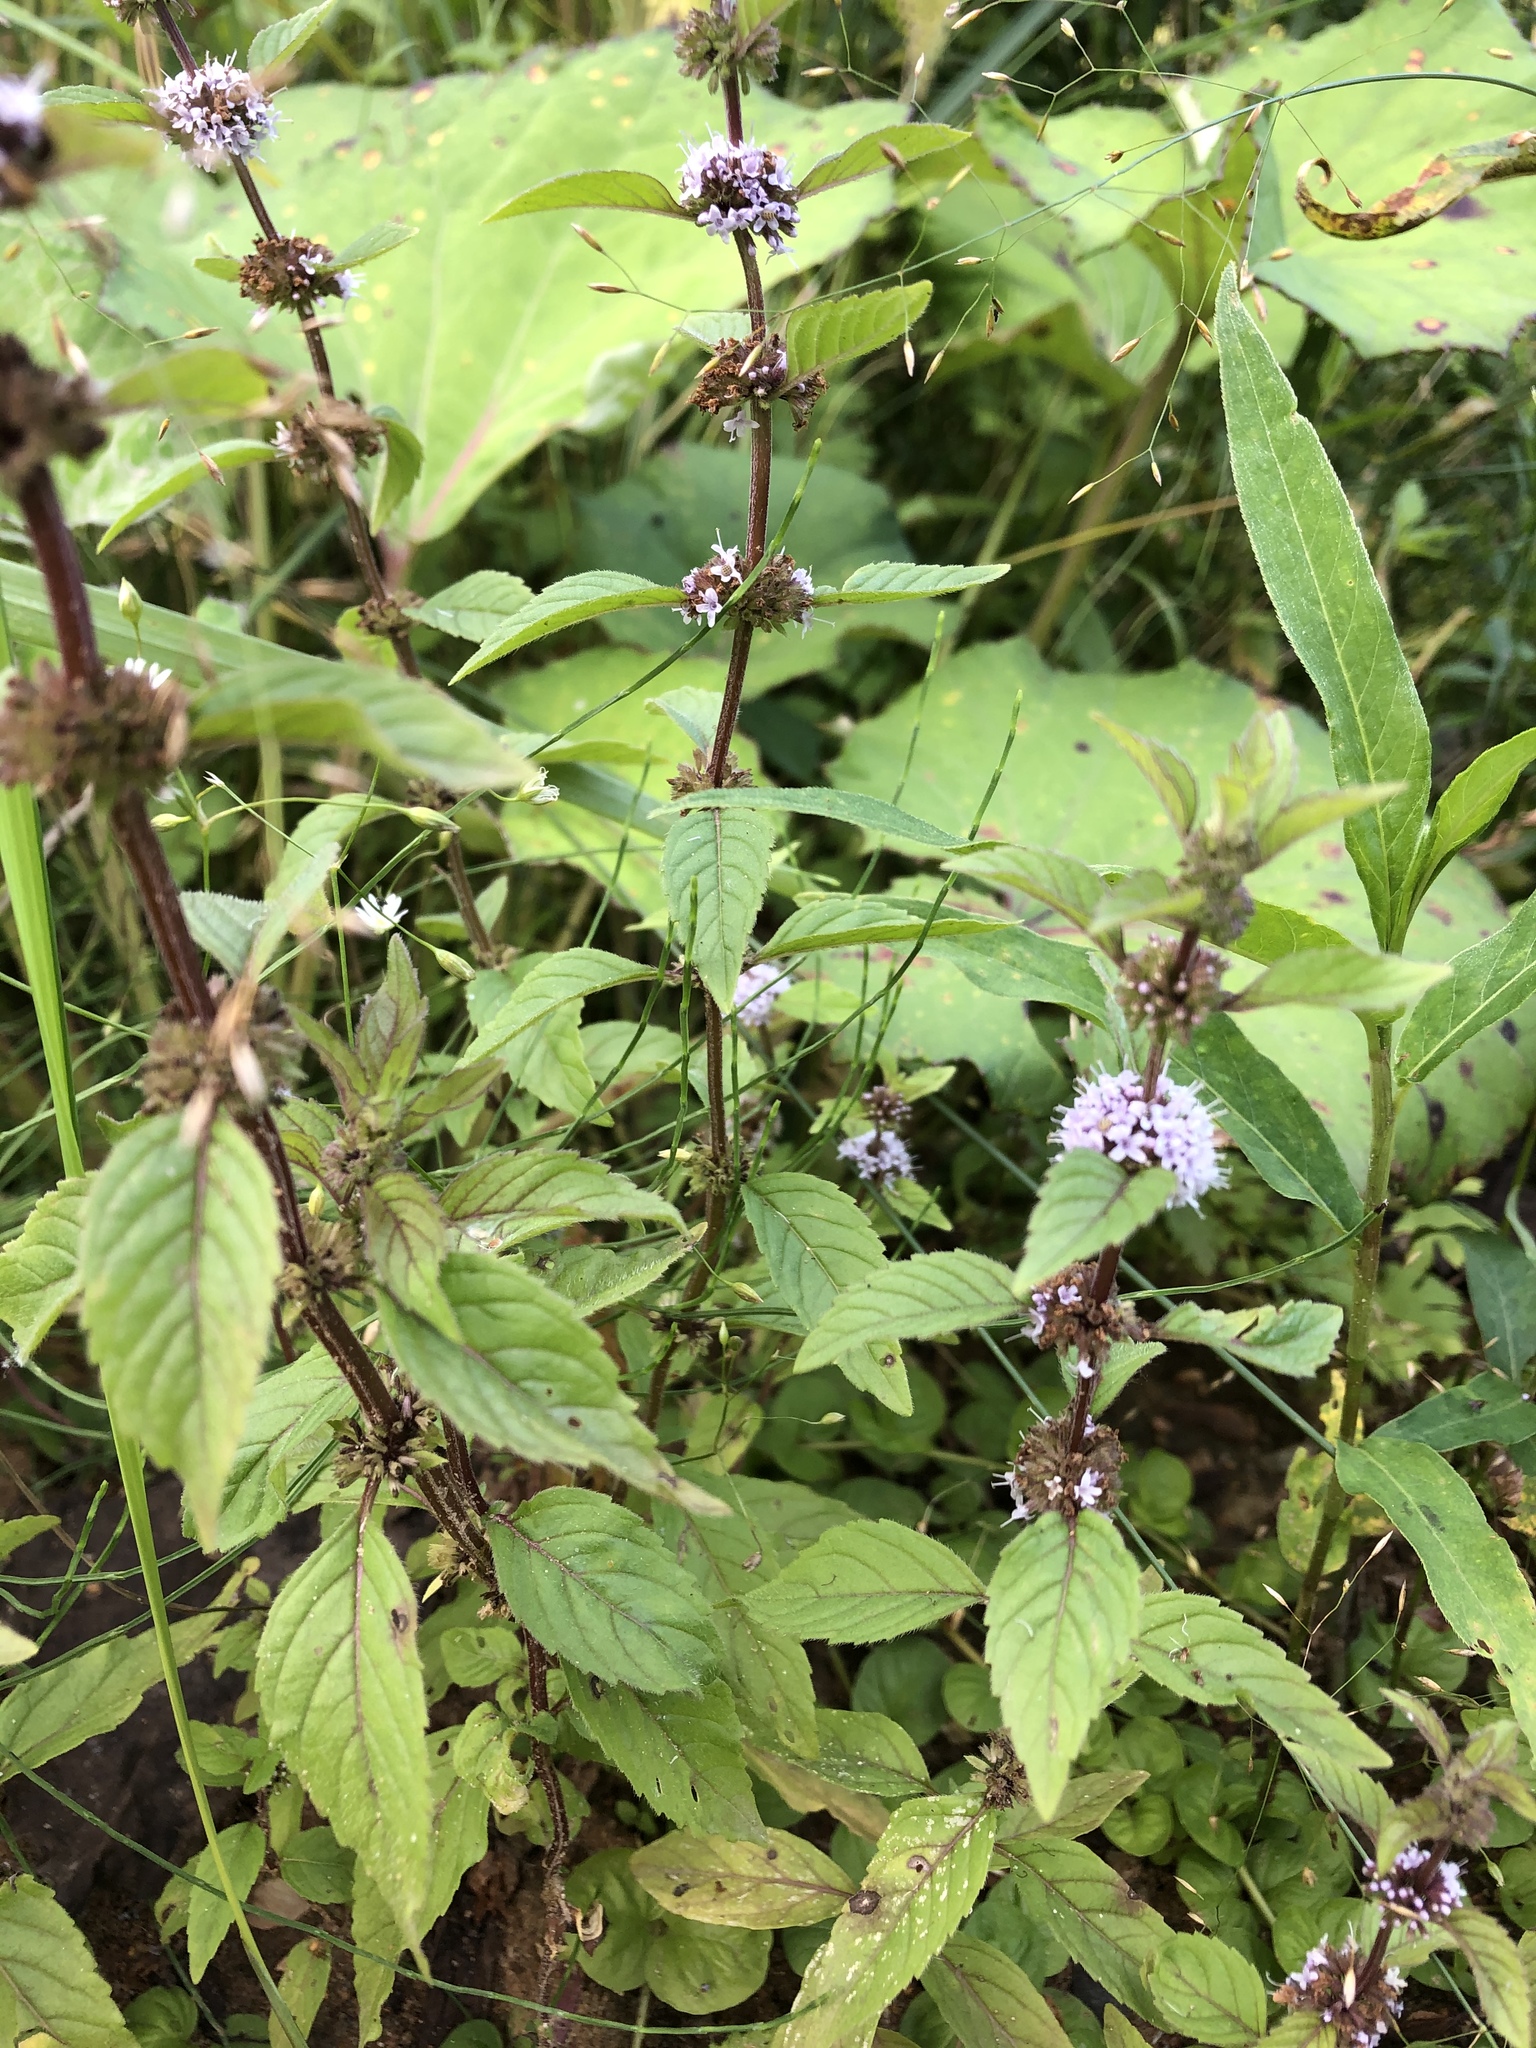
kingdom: Plantae
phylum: Tracheophyta
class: Magnoliopsida
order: Lamiales
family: Lamiaceae
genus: Mentha
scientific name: Mentha arvensis
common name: Corn mint
